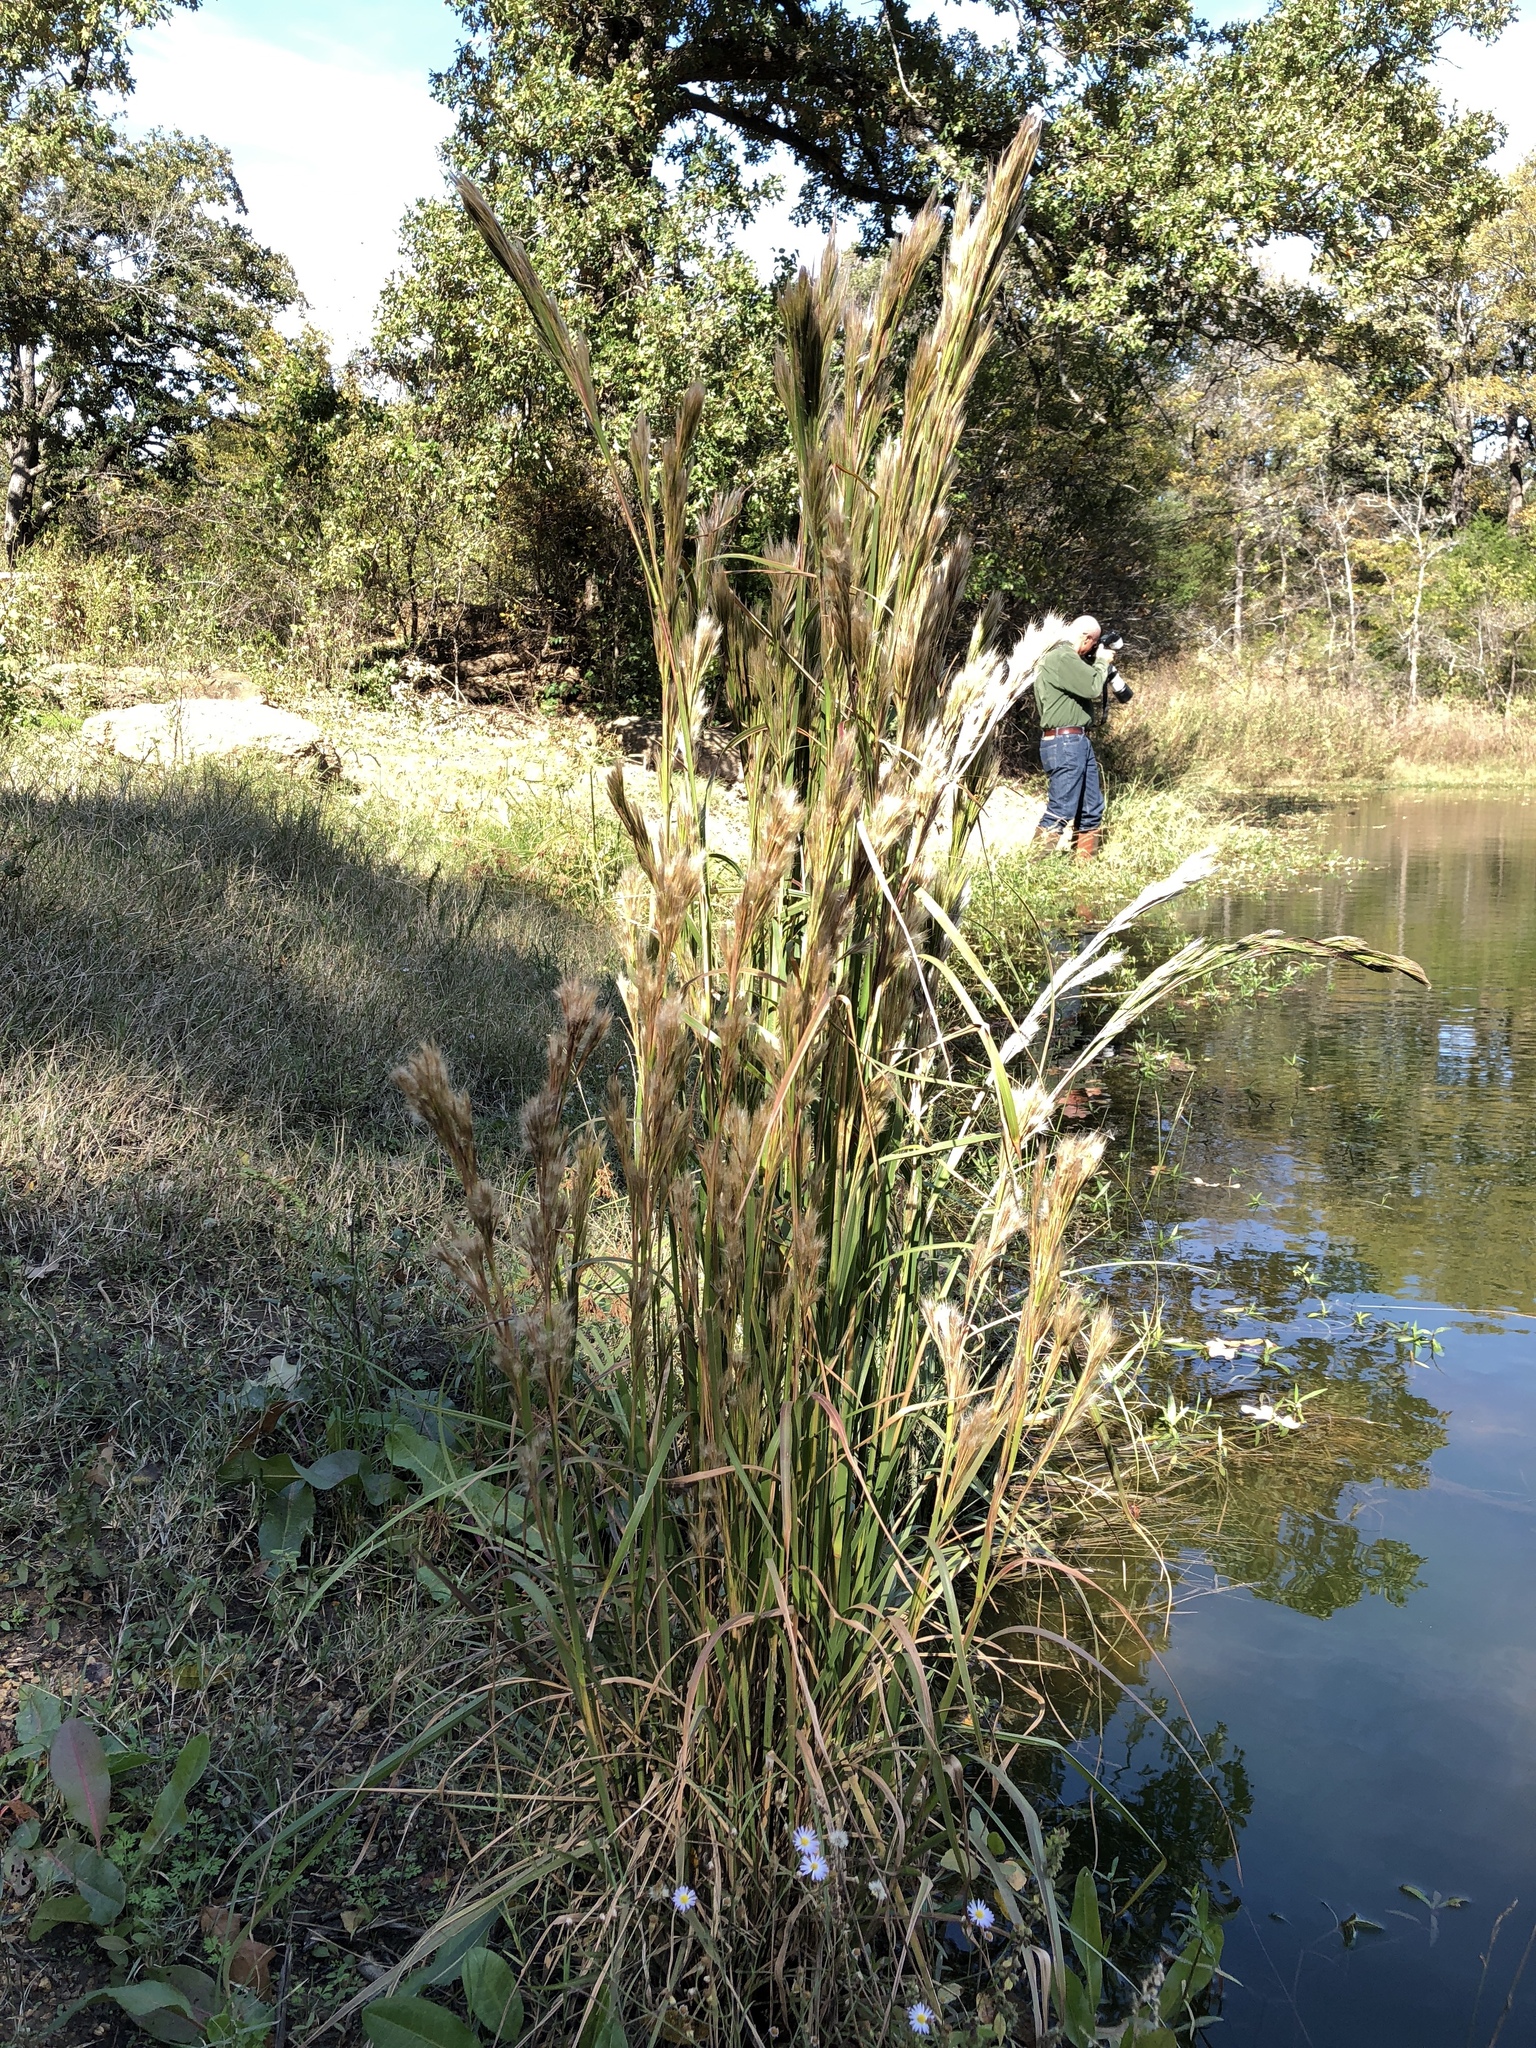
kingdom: Plantae
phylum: Tracheophyta
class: Liliopsida
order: Poales
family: Poaceae
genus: Andropogon
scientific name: Andropogon tenuispatheus
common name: Bushy bluestem
